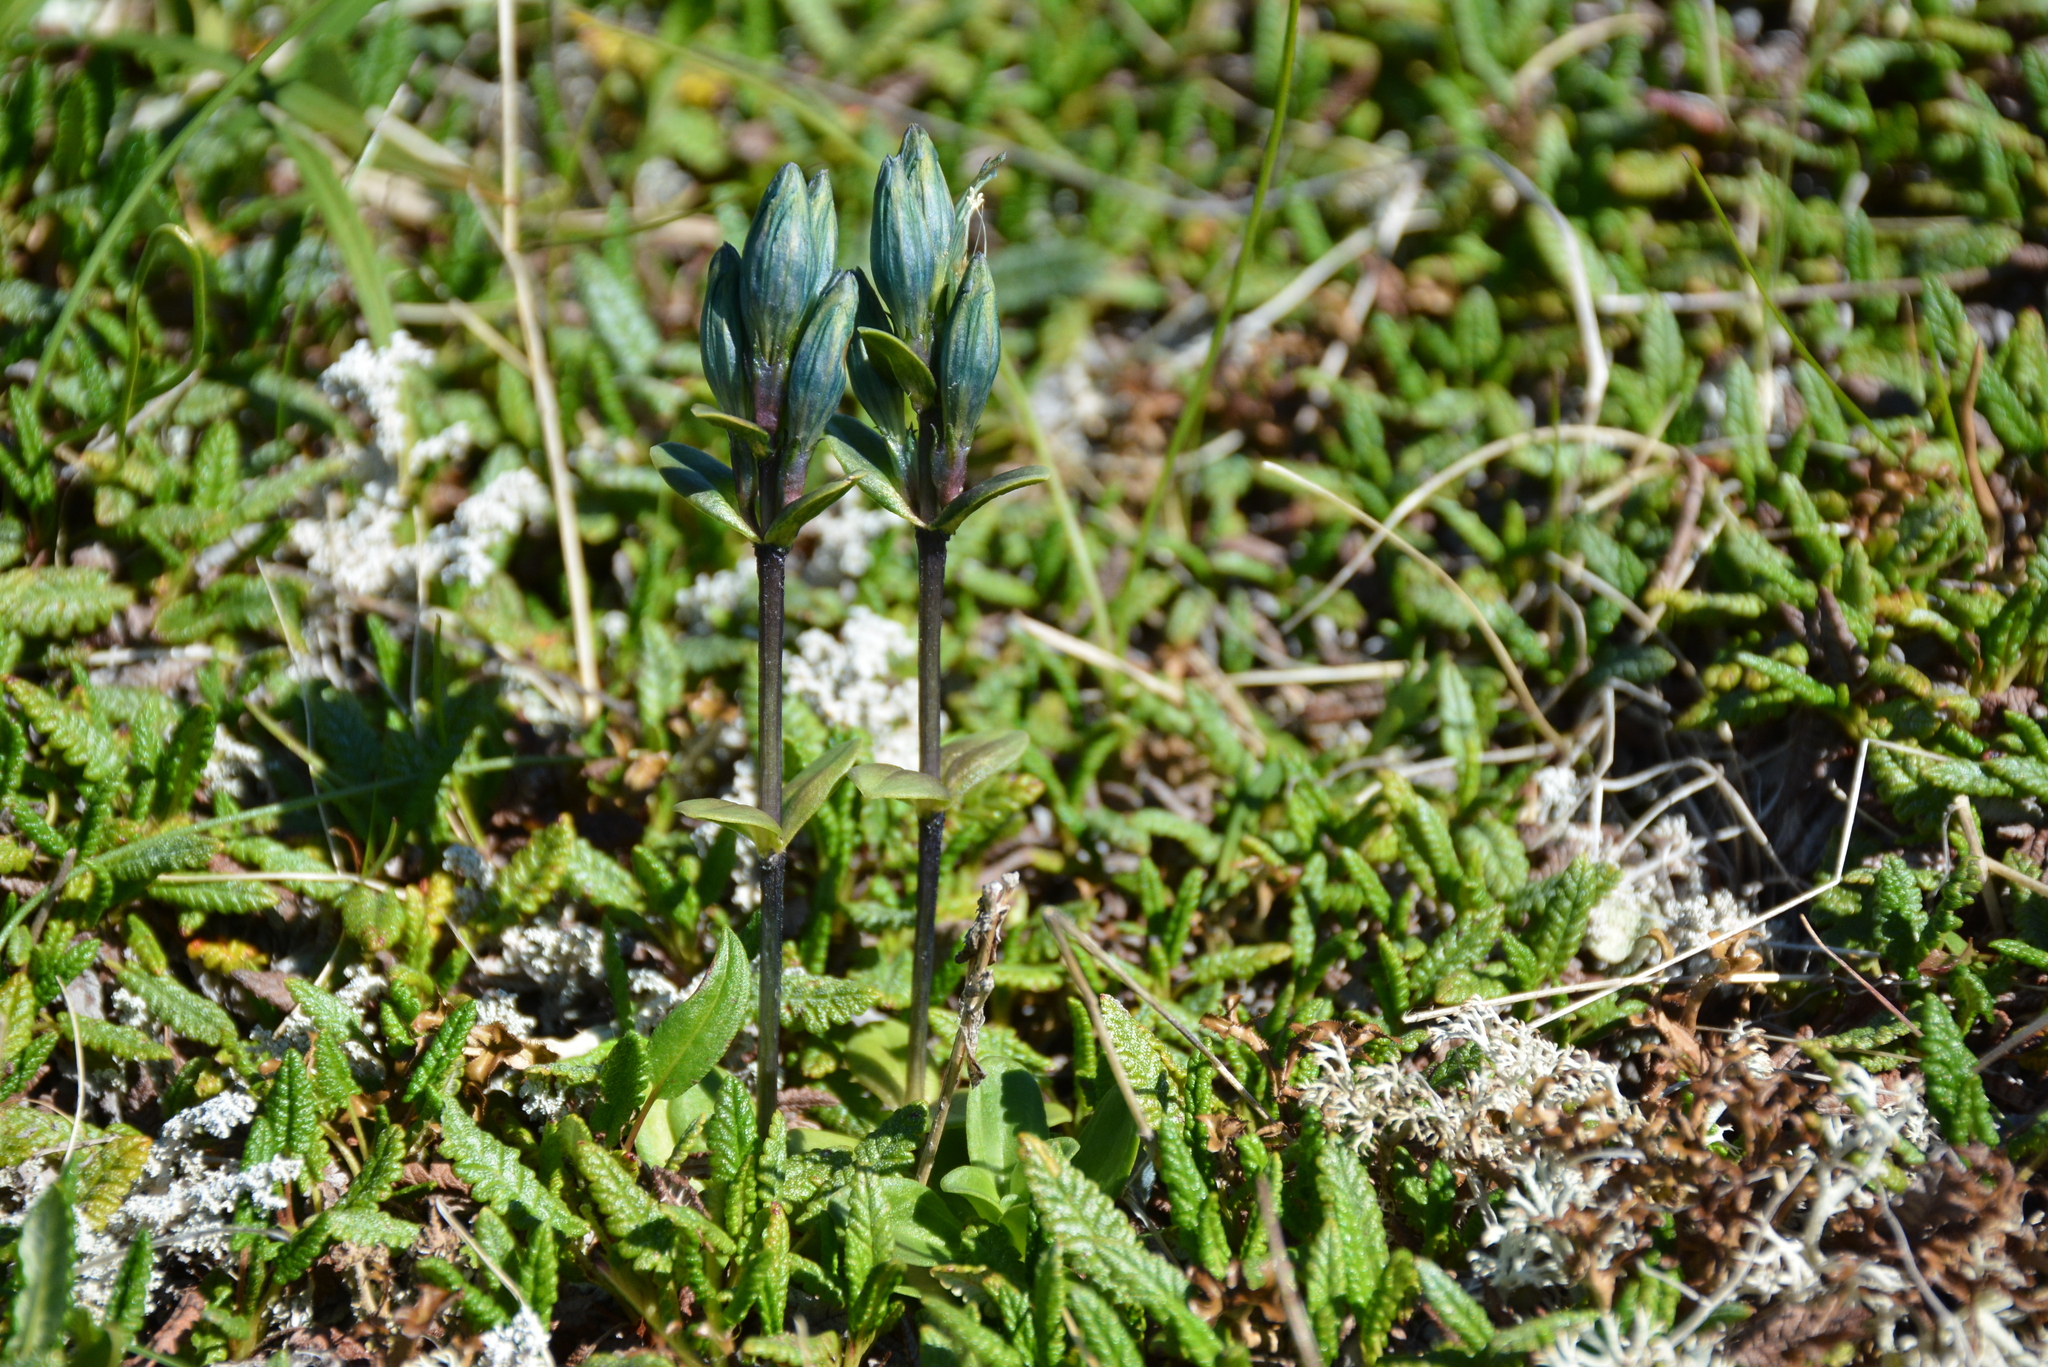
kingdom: Plantae
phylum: Tracheophyta
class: Magnoliopsida
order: Gentianales
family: Gentianaceae
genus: Gentiana
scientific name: Gentiana glauca
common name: Alpine gentian
